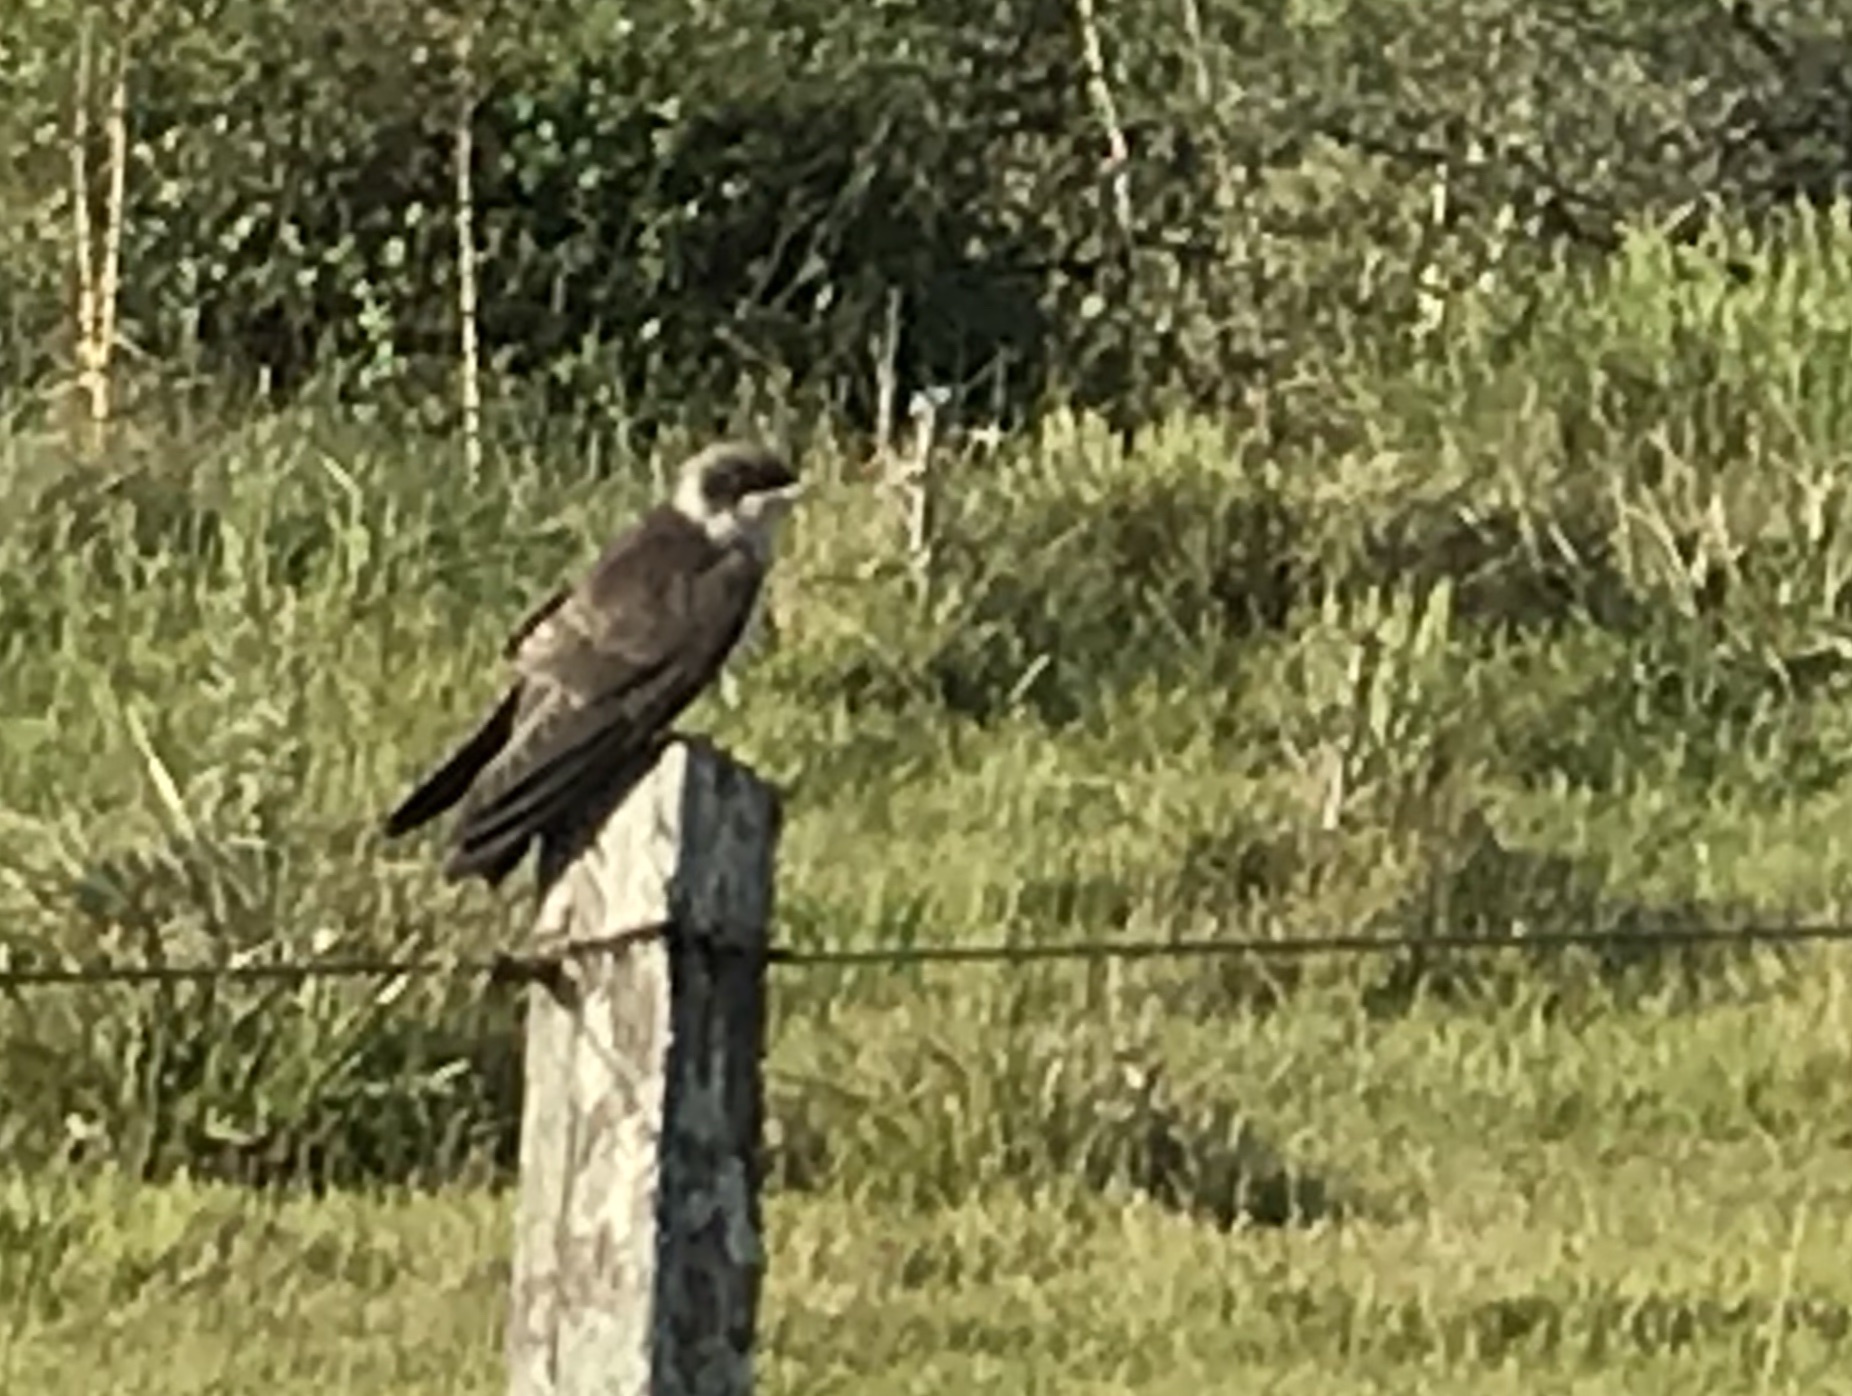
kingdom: Animalia
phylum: Chordata
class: Aves
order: Passeriformes
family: Hirundinidae
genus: Progne
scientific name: Progne chalybea
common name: Grey-breasted martin
